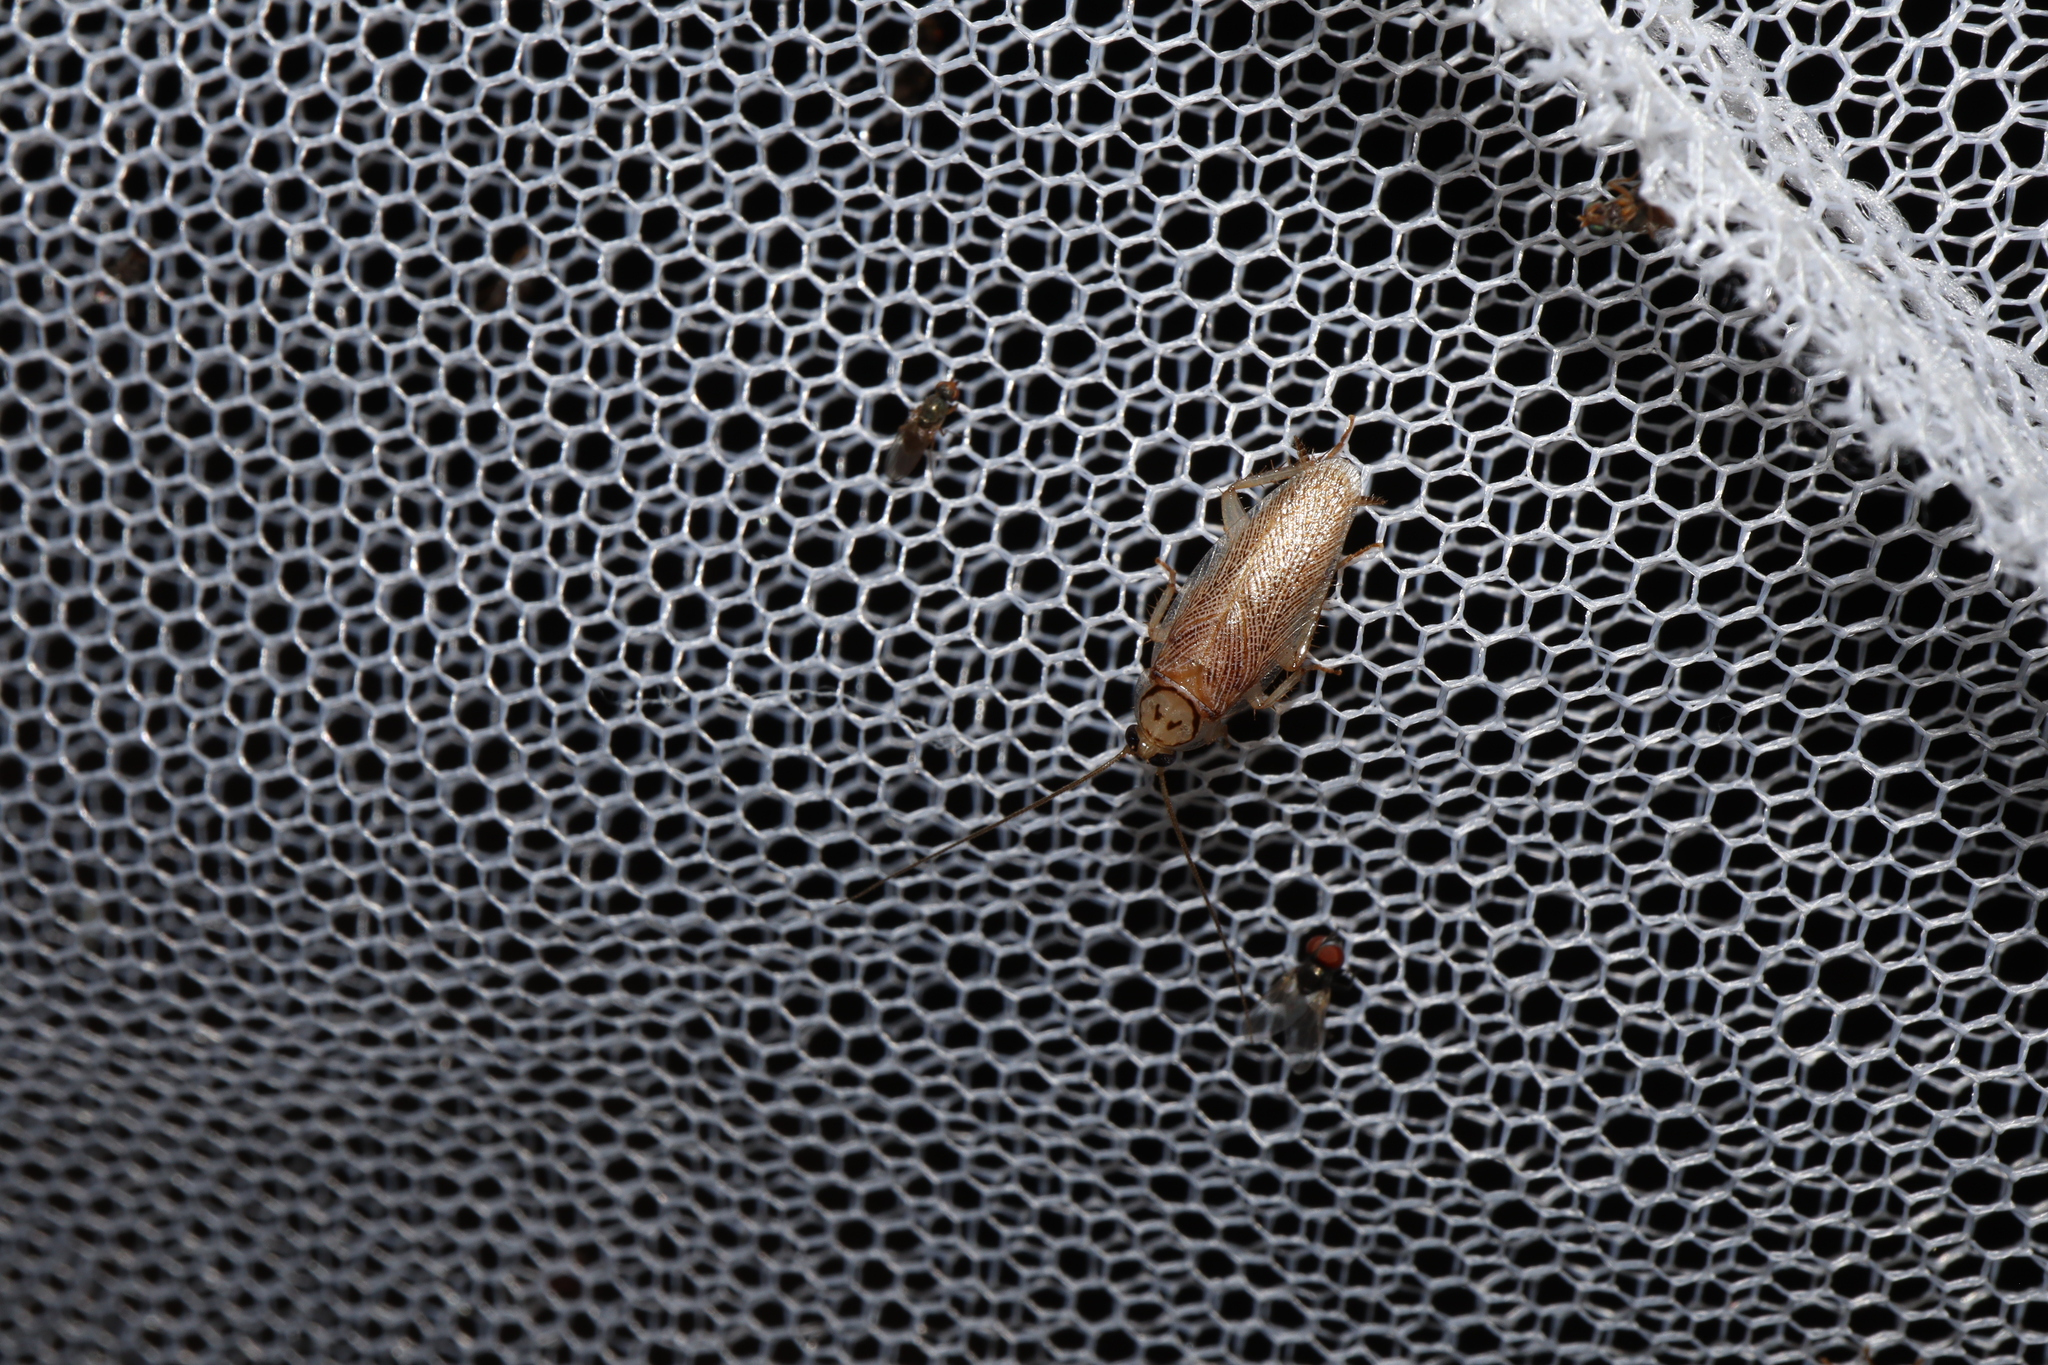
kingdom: Animalia
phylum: Arthropoda
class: Insecta
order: Blattodea
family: Ectobiidae
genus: Pseudobalta
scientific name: Pseudobalta cinctella
